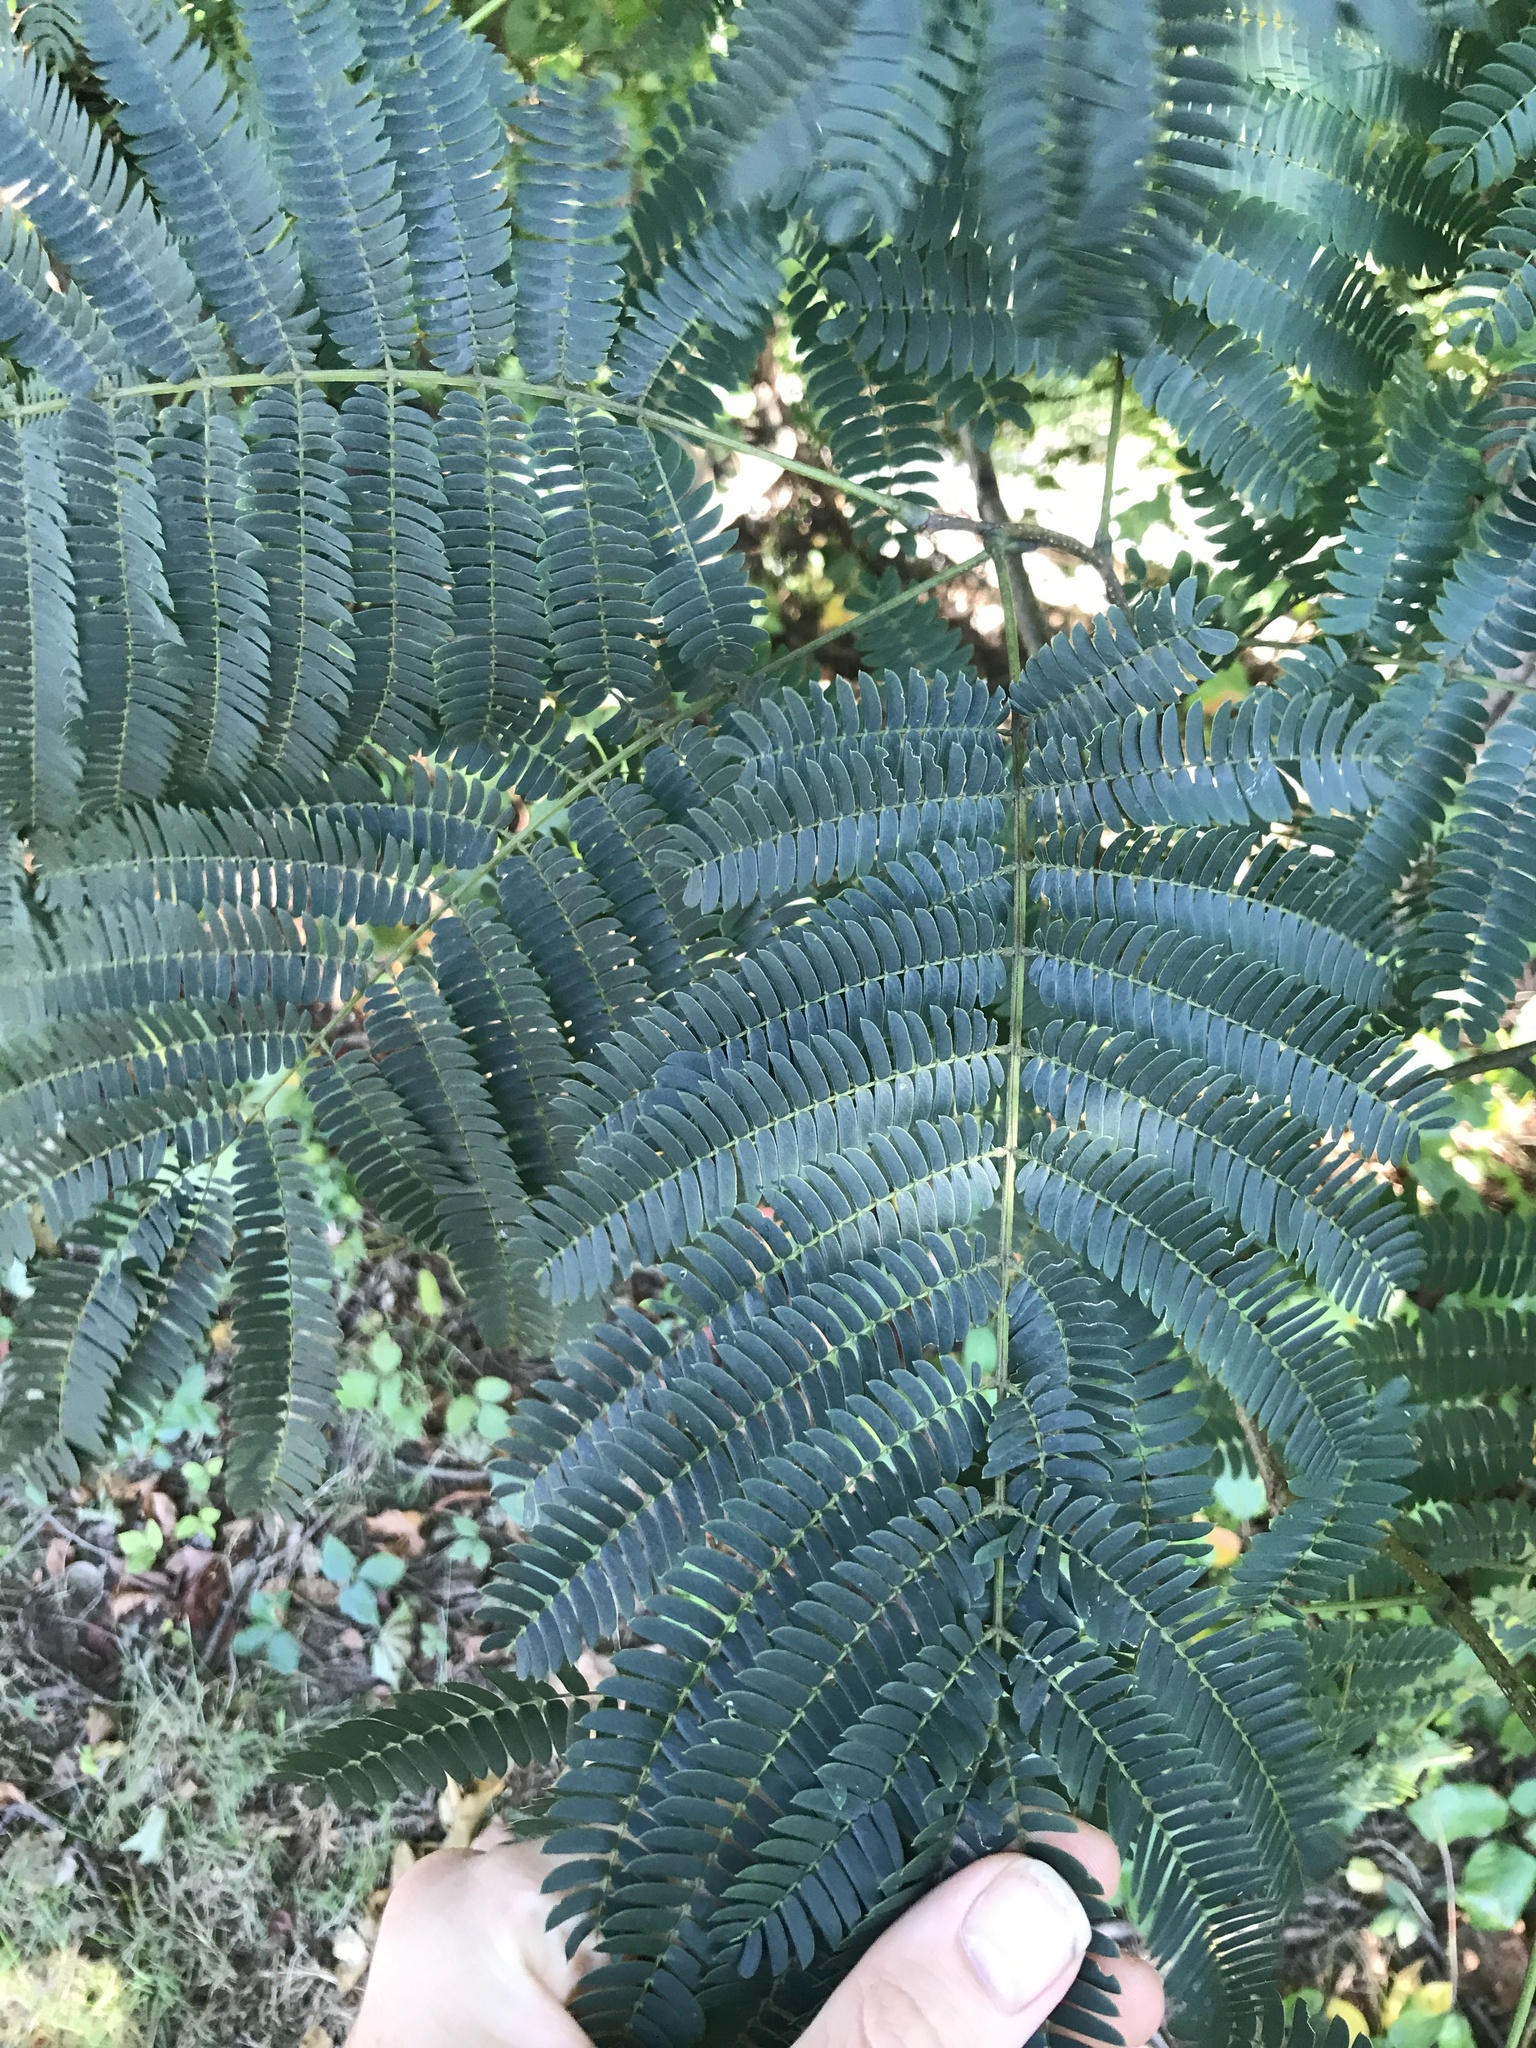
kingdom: Plantae
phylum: Tracheophyta
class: Magnoliopsida
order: Fabales
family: Fabaceae
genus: Albizia
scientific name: Albizia julibrissin
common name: Silktree
